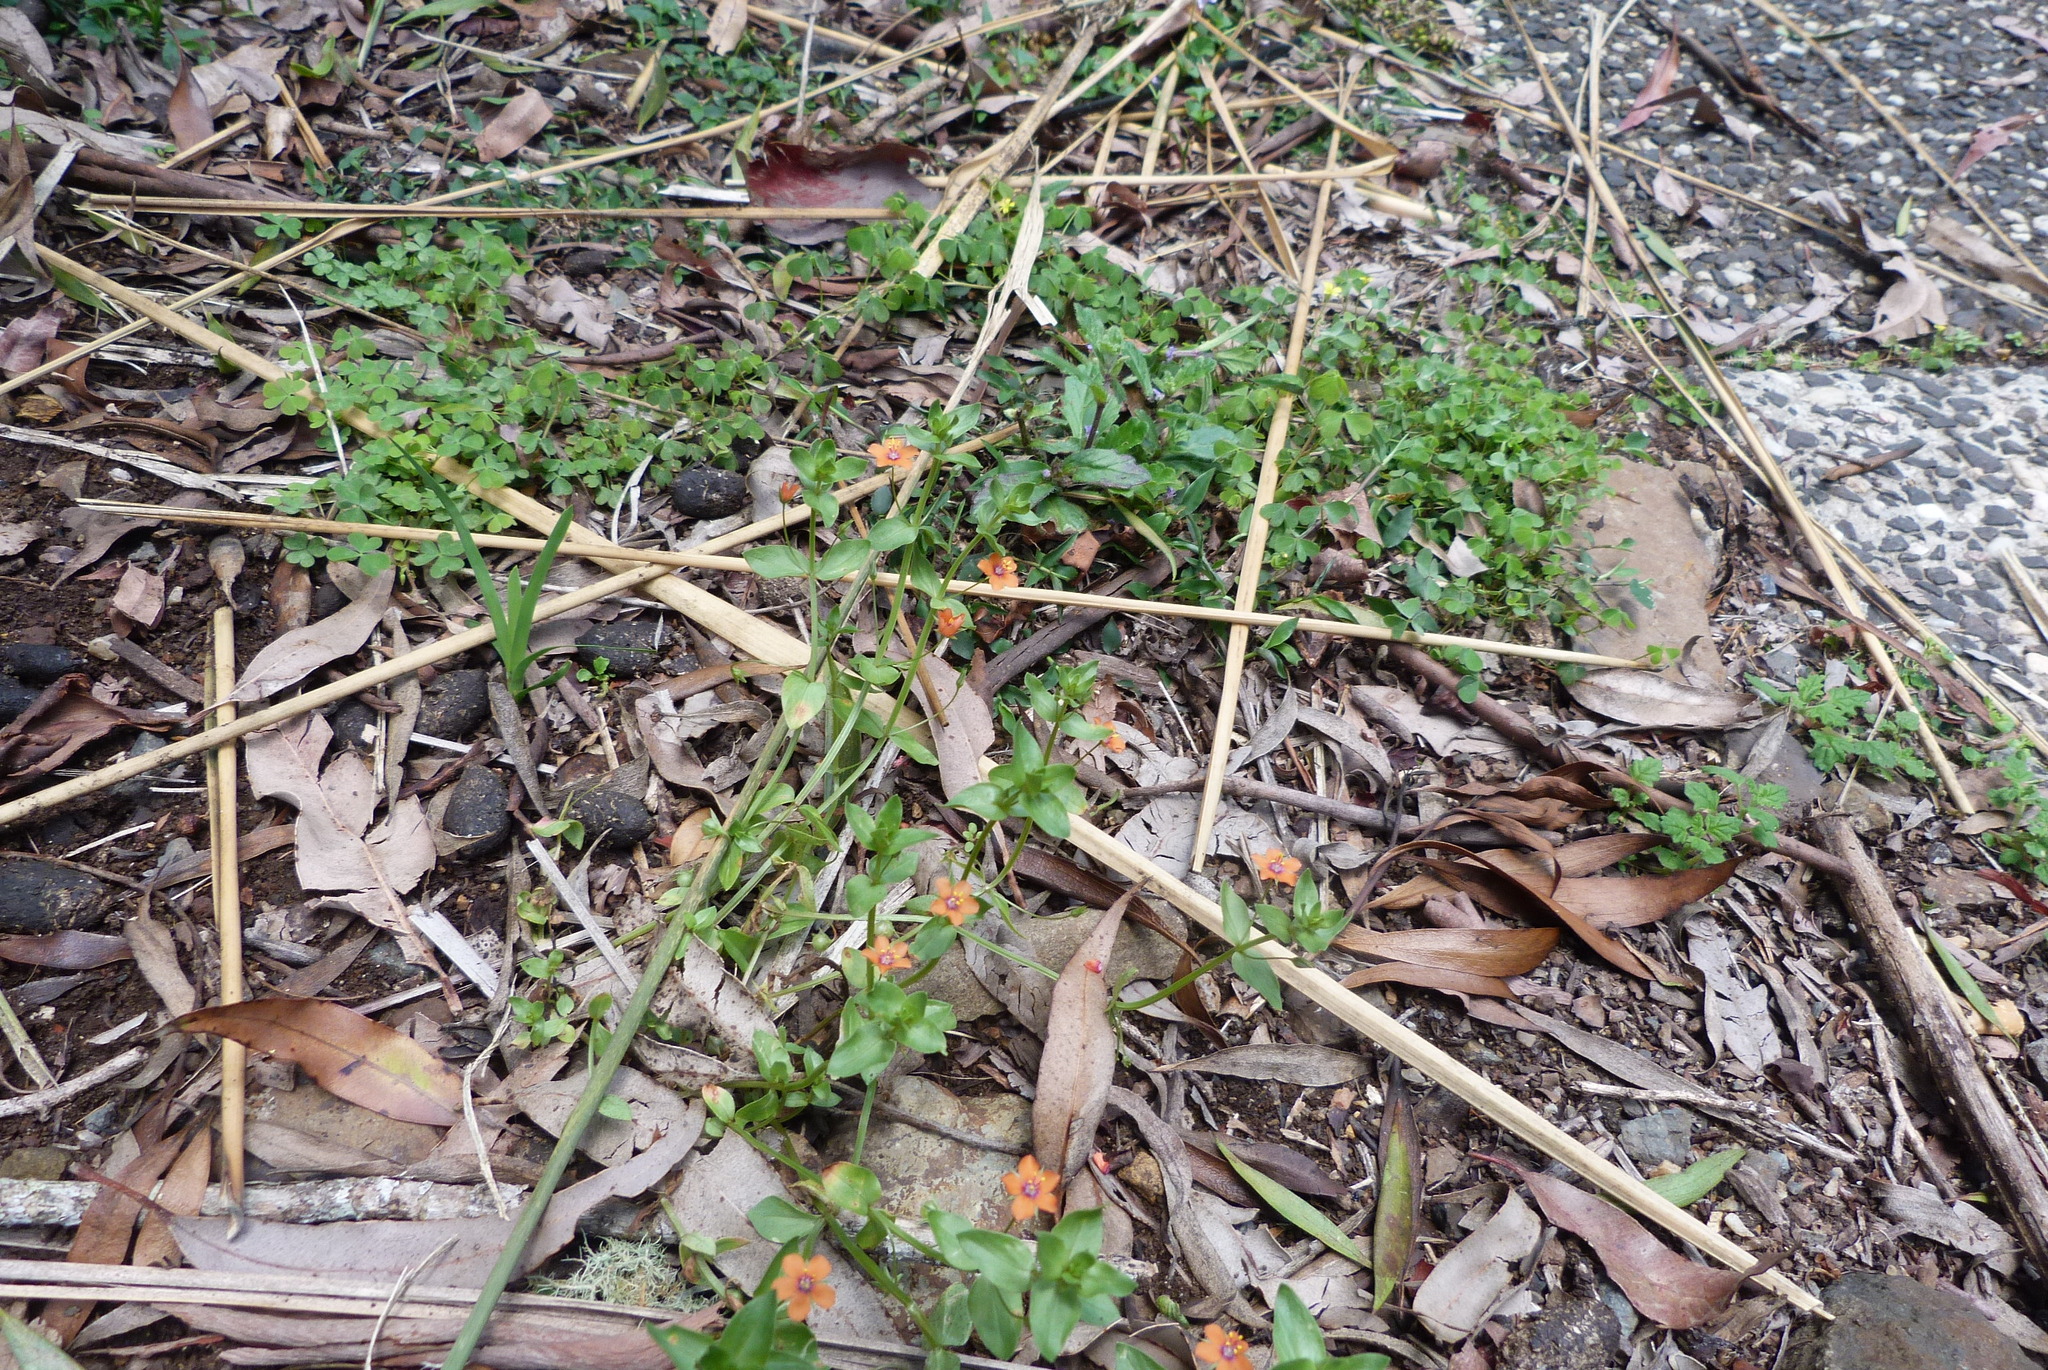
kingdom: Plantae
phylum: Tracheophyta
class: Magnoliopsida
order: Ericales
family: Primulaceae
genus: Lysimachia
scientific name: Lysimachia arvensis
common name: Scarlet pimpernel
